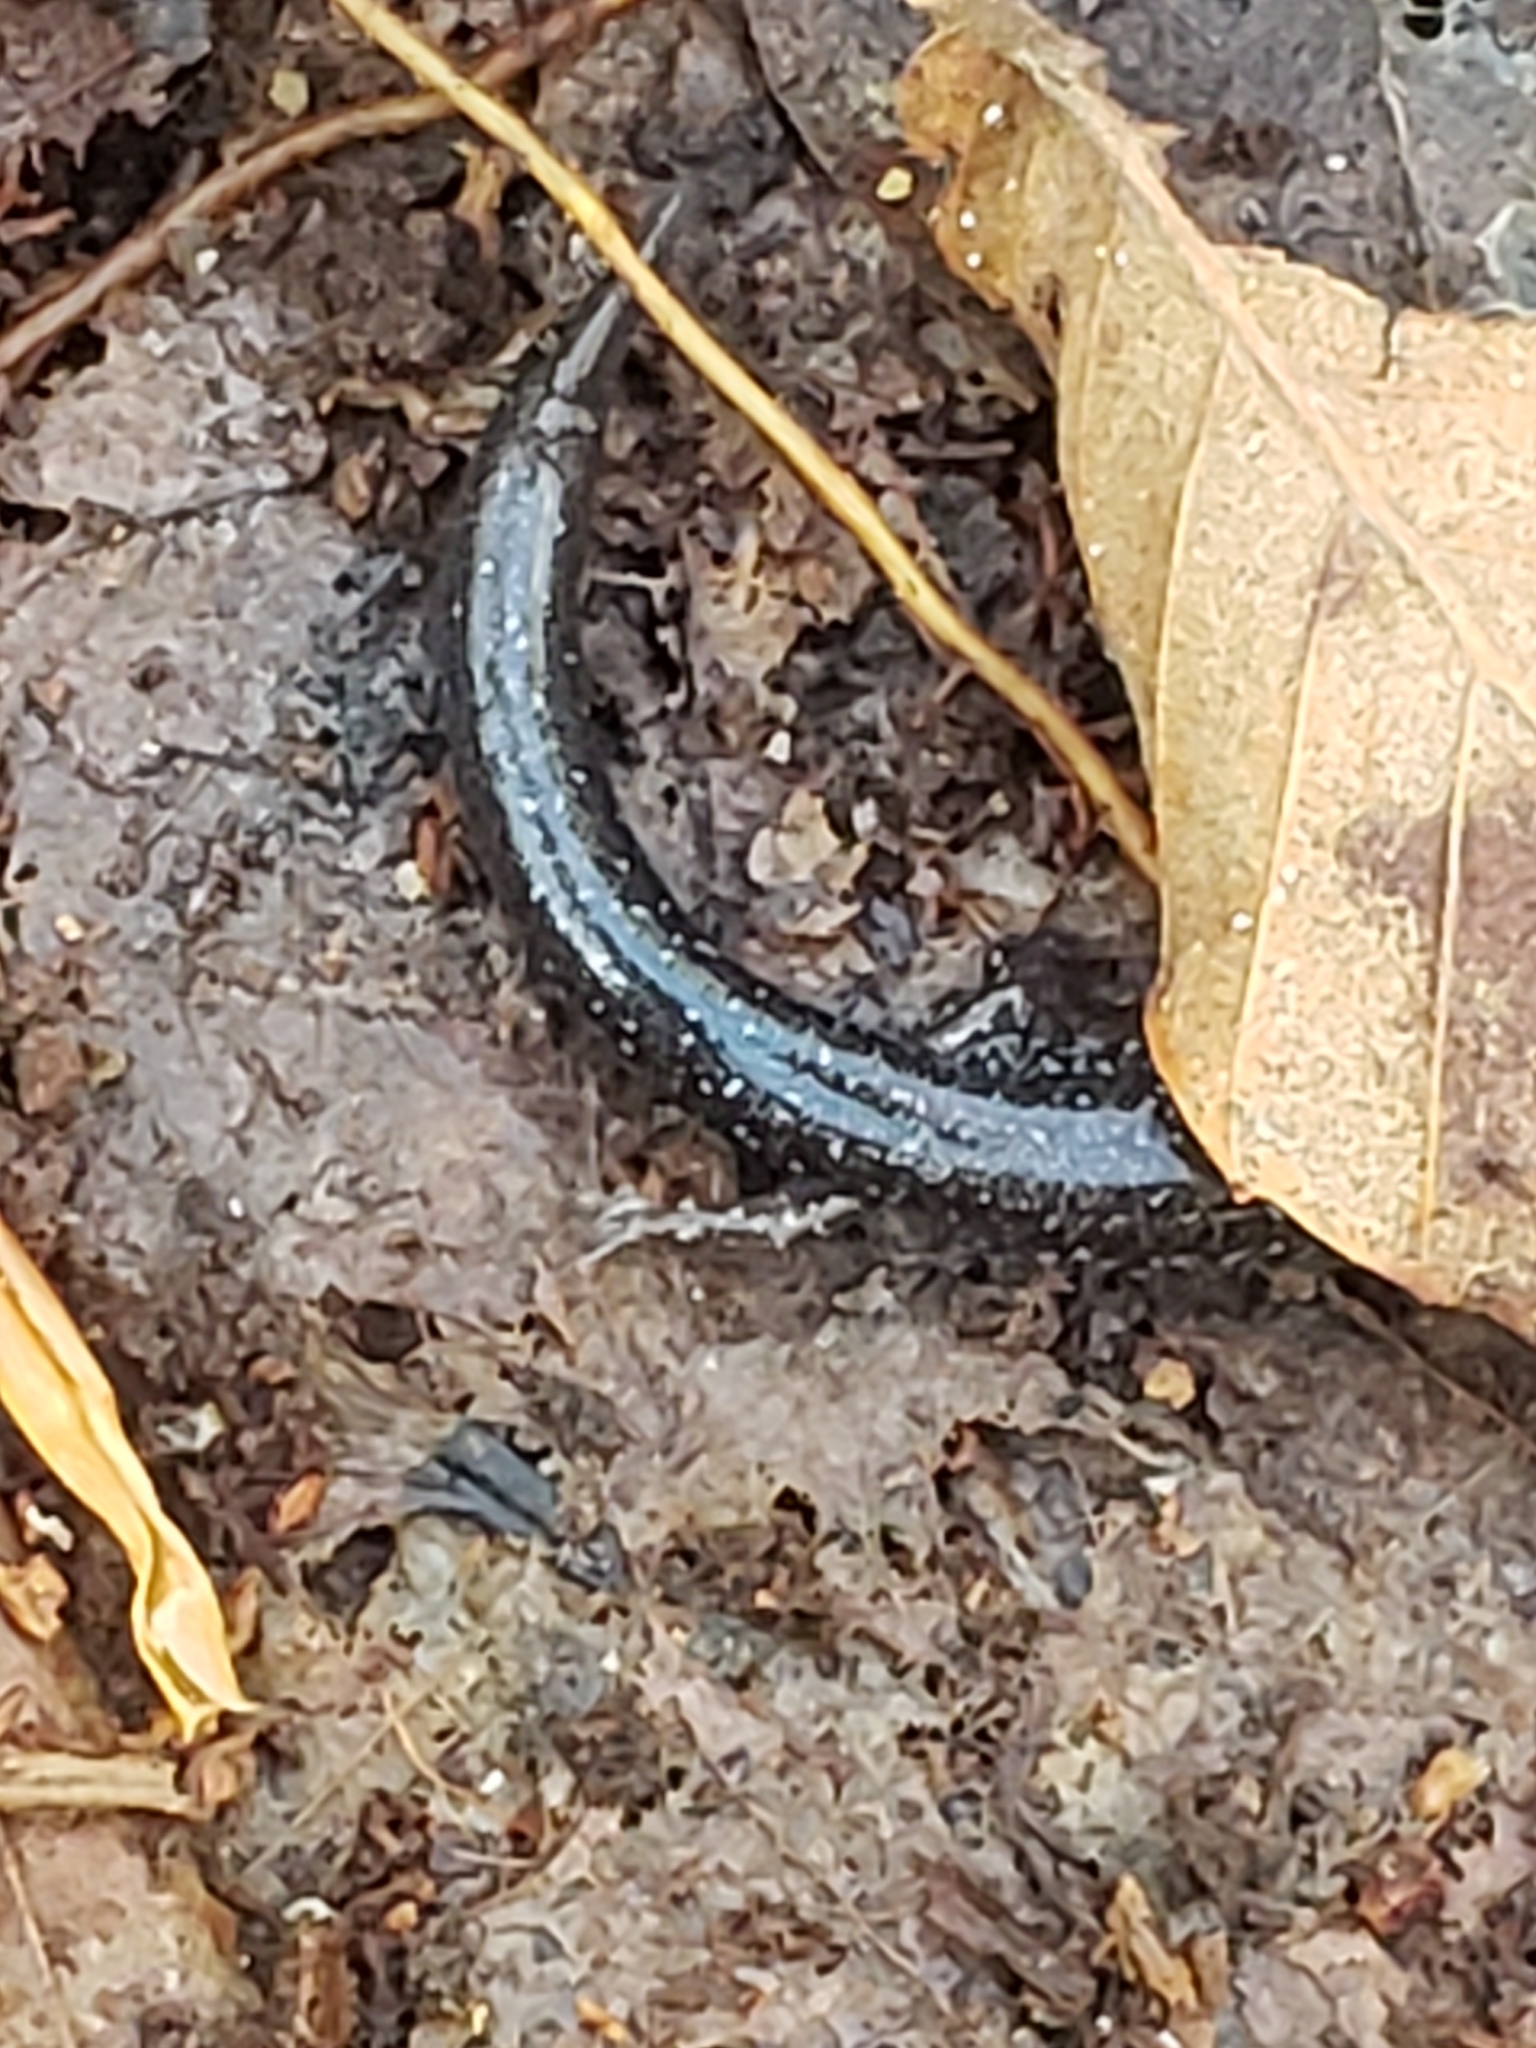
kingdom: Animalia
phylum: Chordata
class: Amphibia
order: Caudata
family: Plethodontidae
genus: Plethodon
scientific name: Plethodon cinereus
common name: Redback salamander
